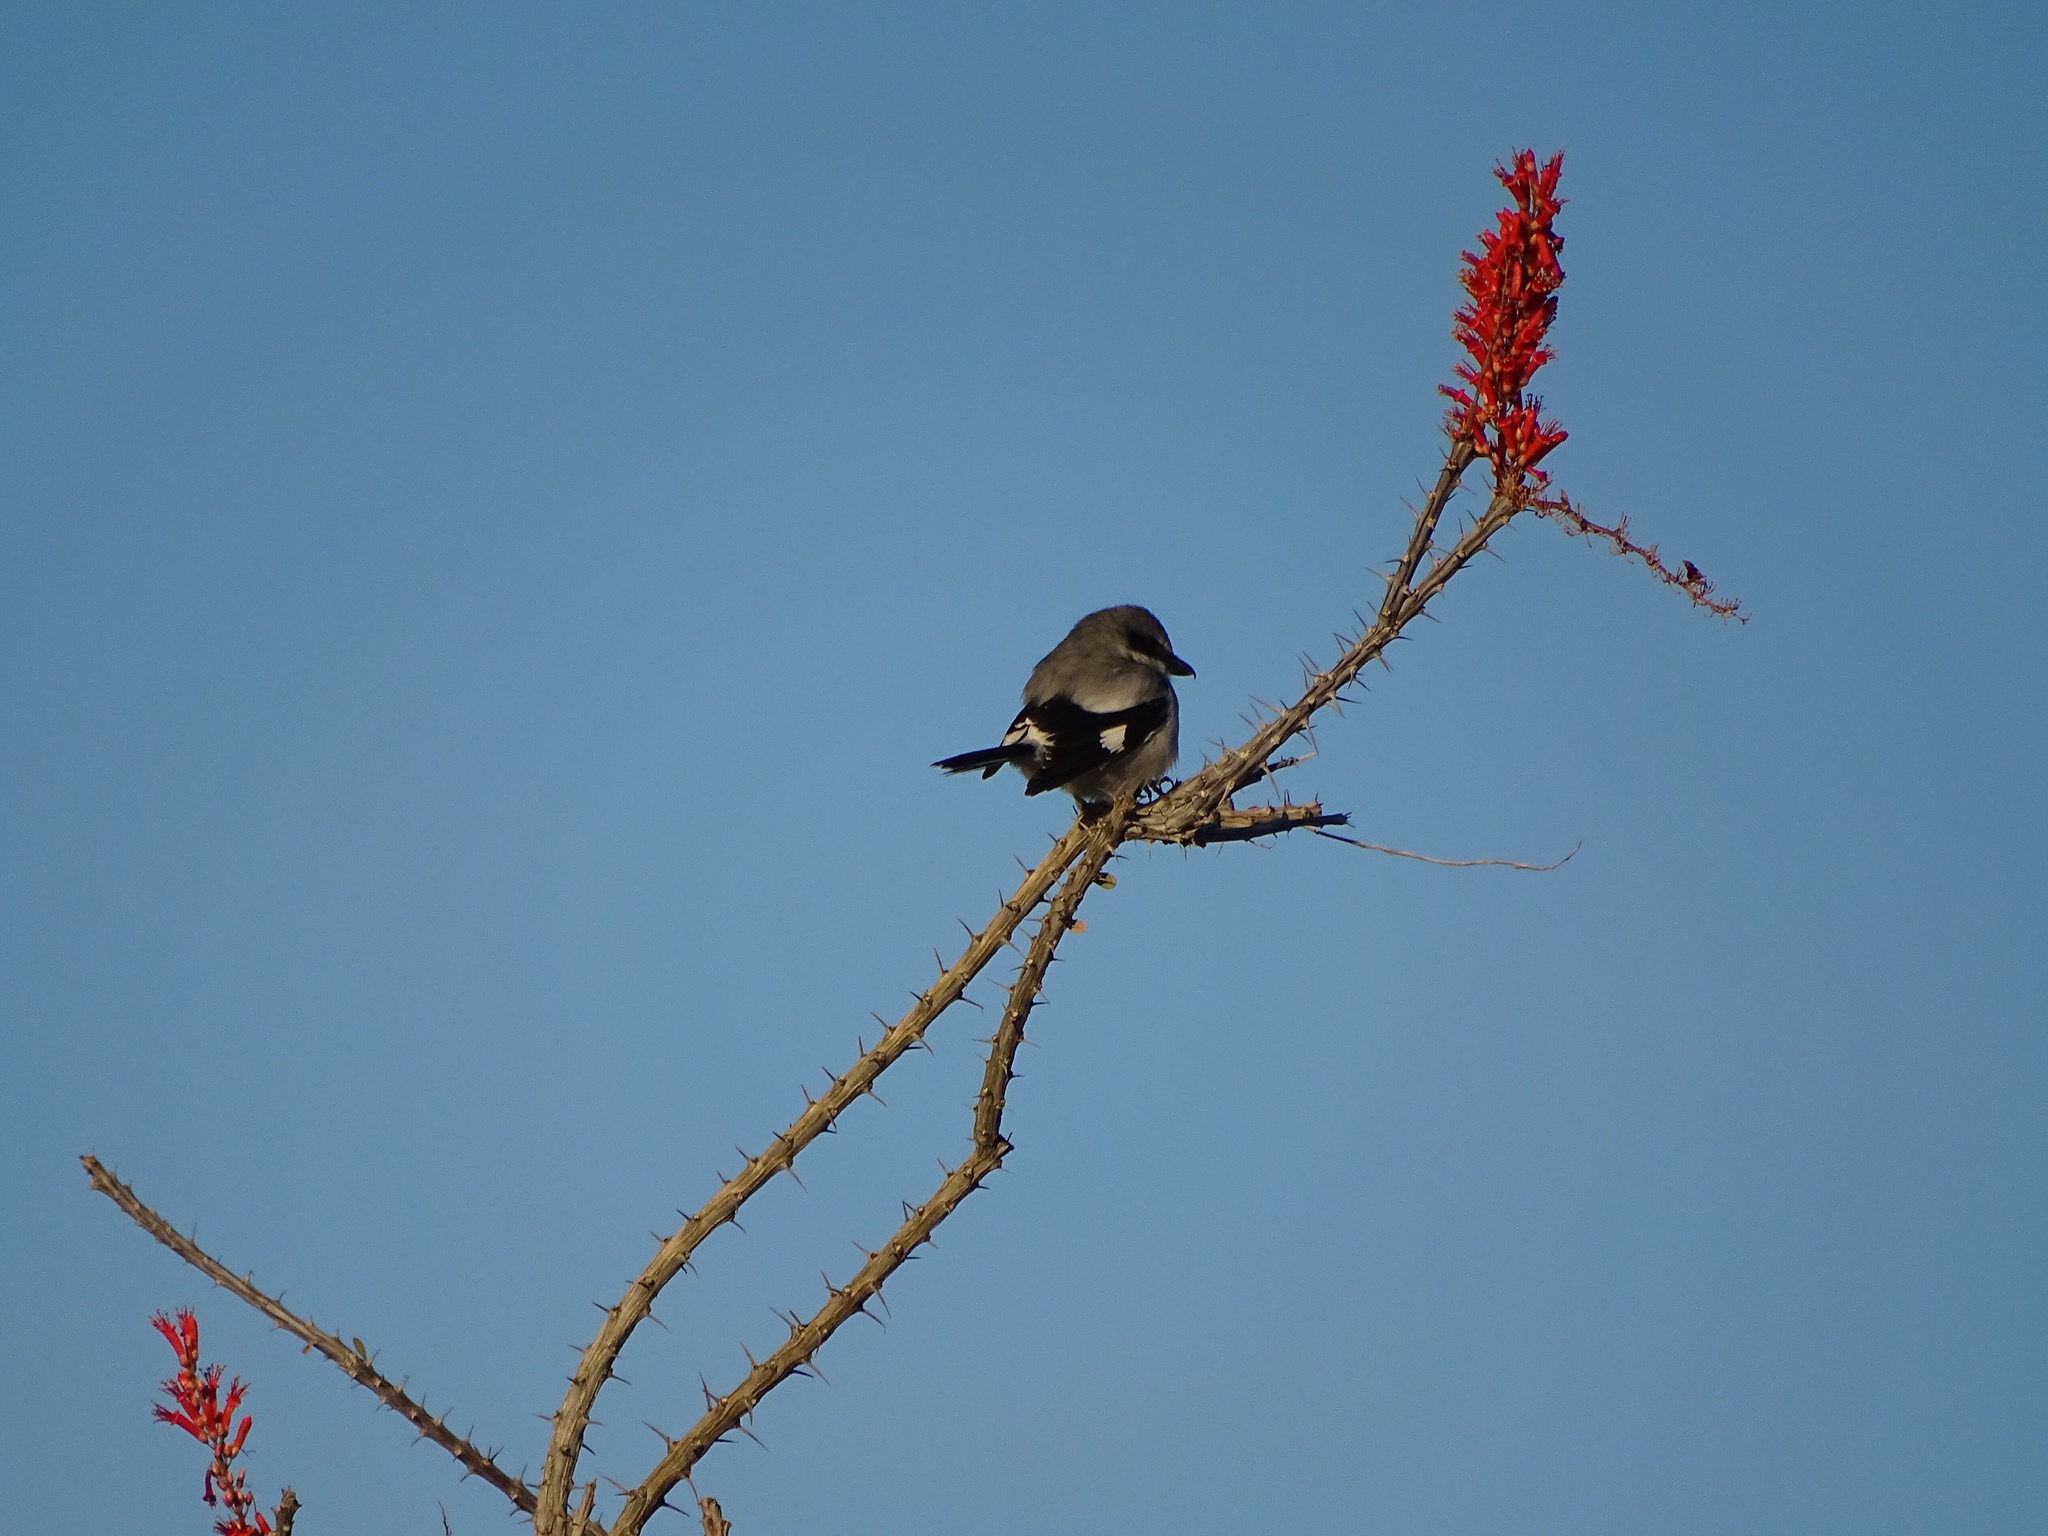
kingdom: Animalia
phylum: Chordata
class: Aves
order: Passeriformes
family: Laniidae
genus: Lanius
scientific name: Lanius ludovicianus
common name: Loggerhead shrike
